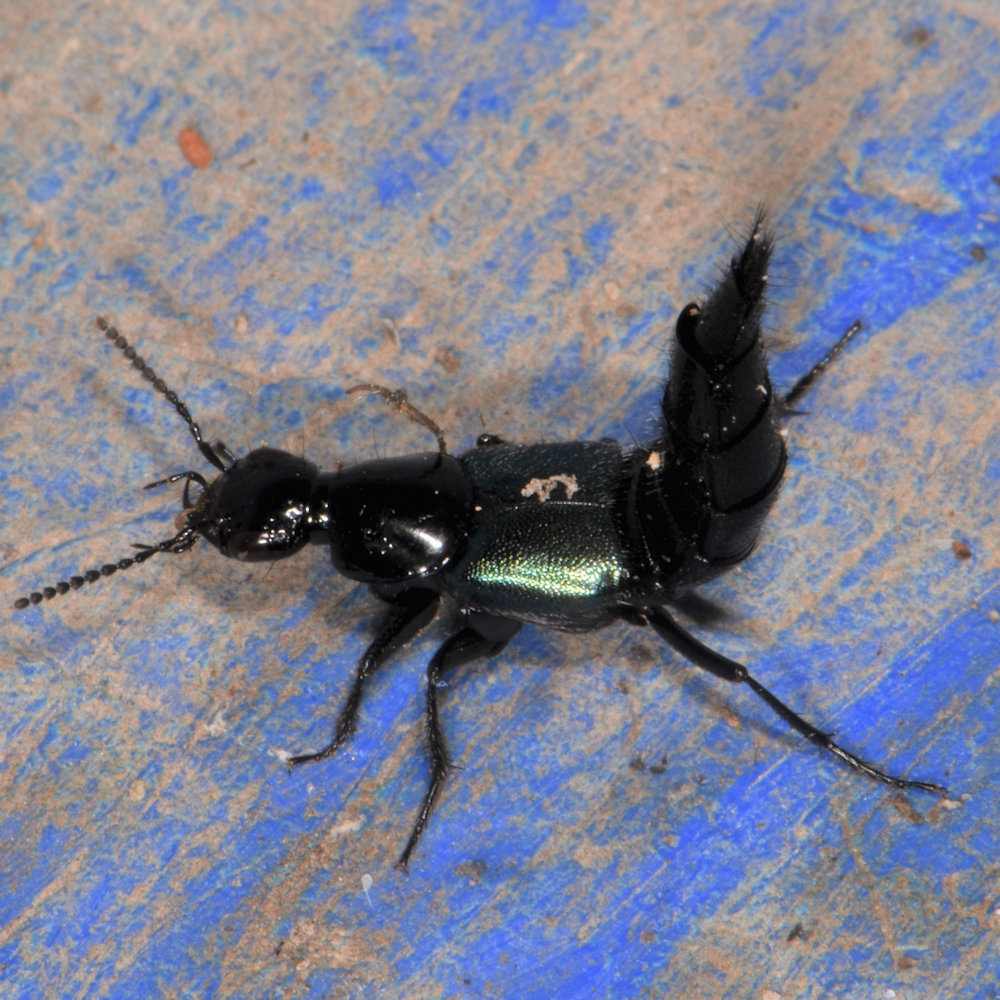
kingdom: Animalia
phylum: Arthropoda
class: Insecta
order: Coleoptera
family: Staphylinidae
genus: Philonthus
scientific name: Philonthus caeruleipennis
